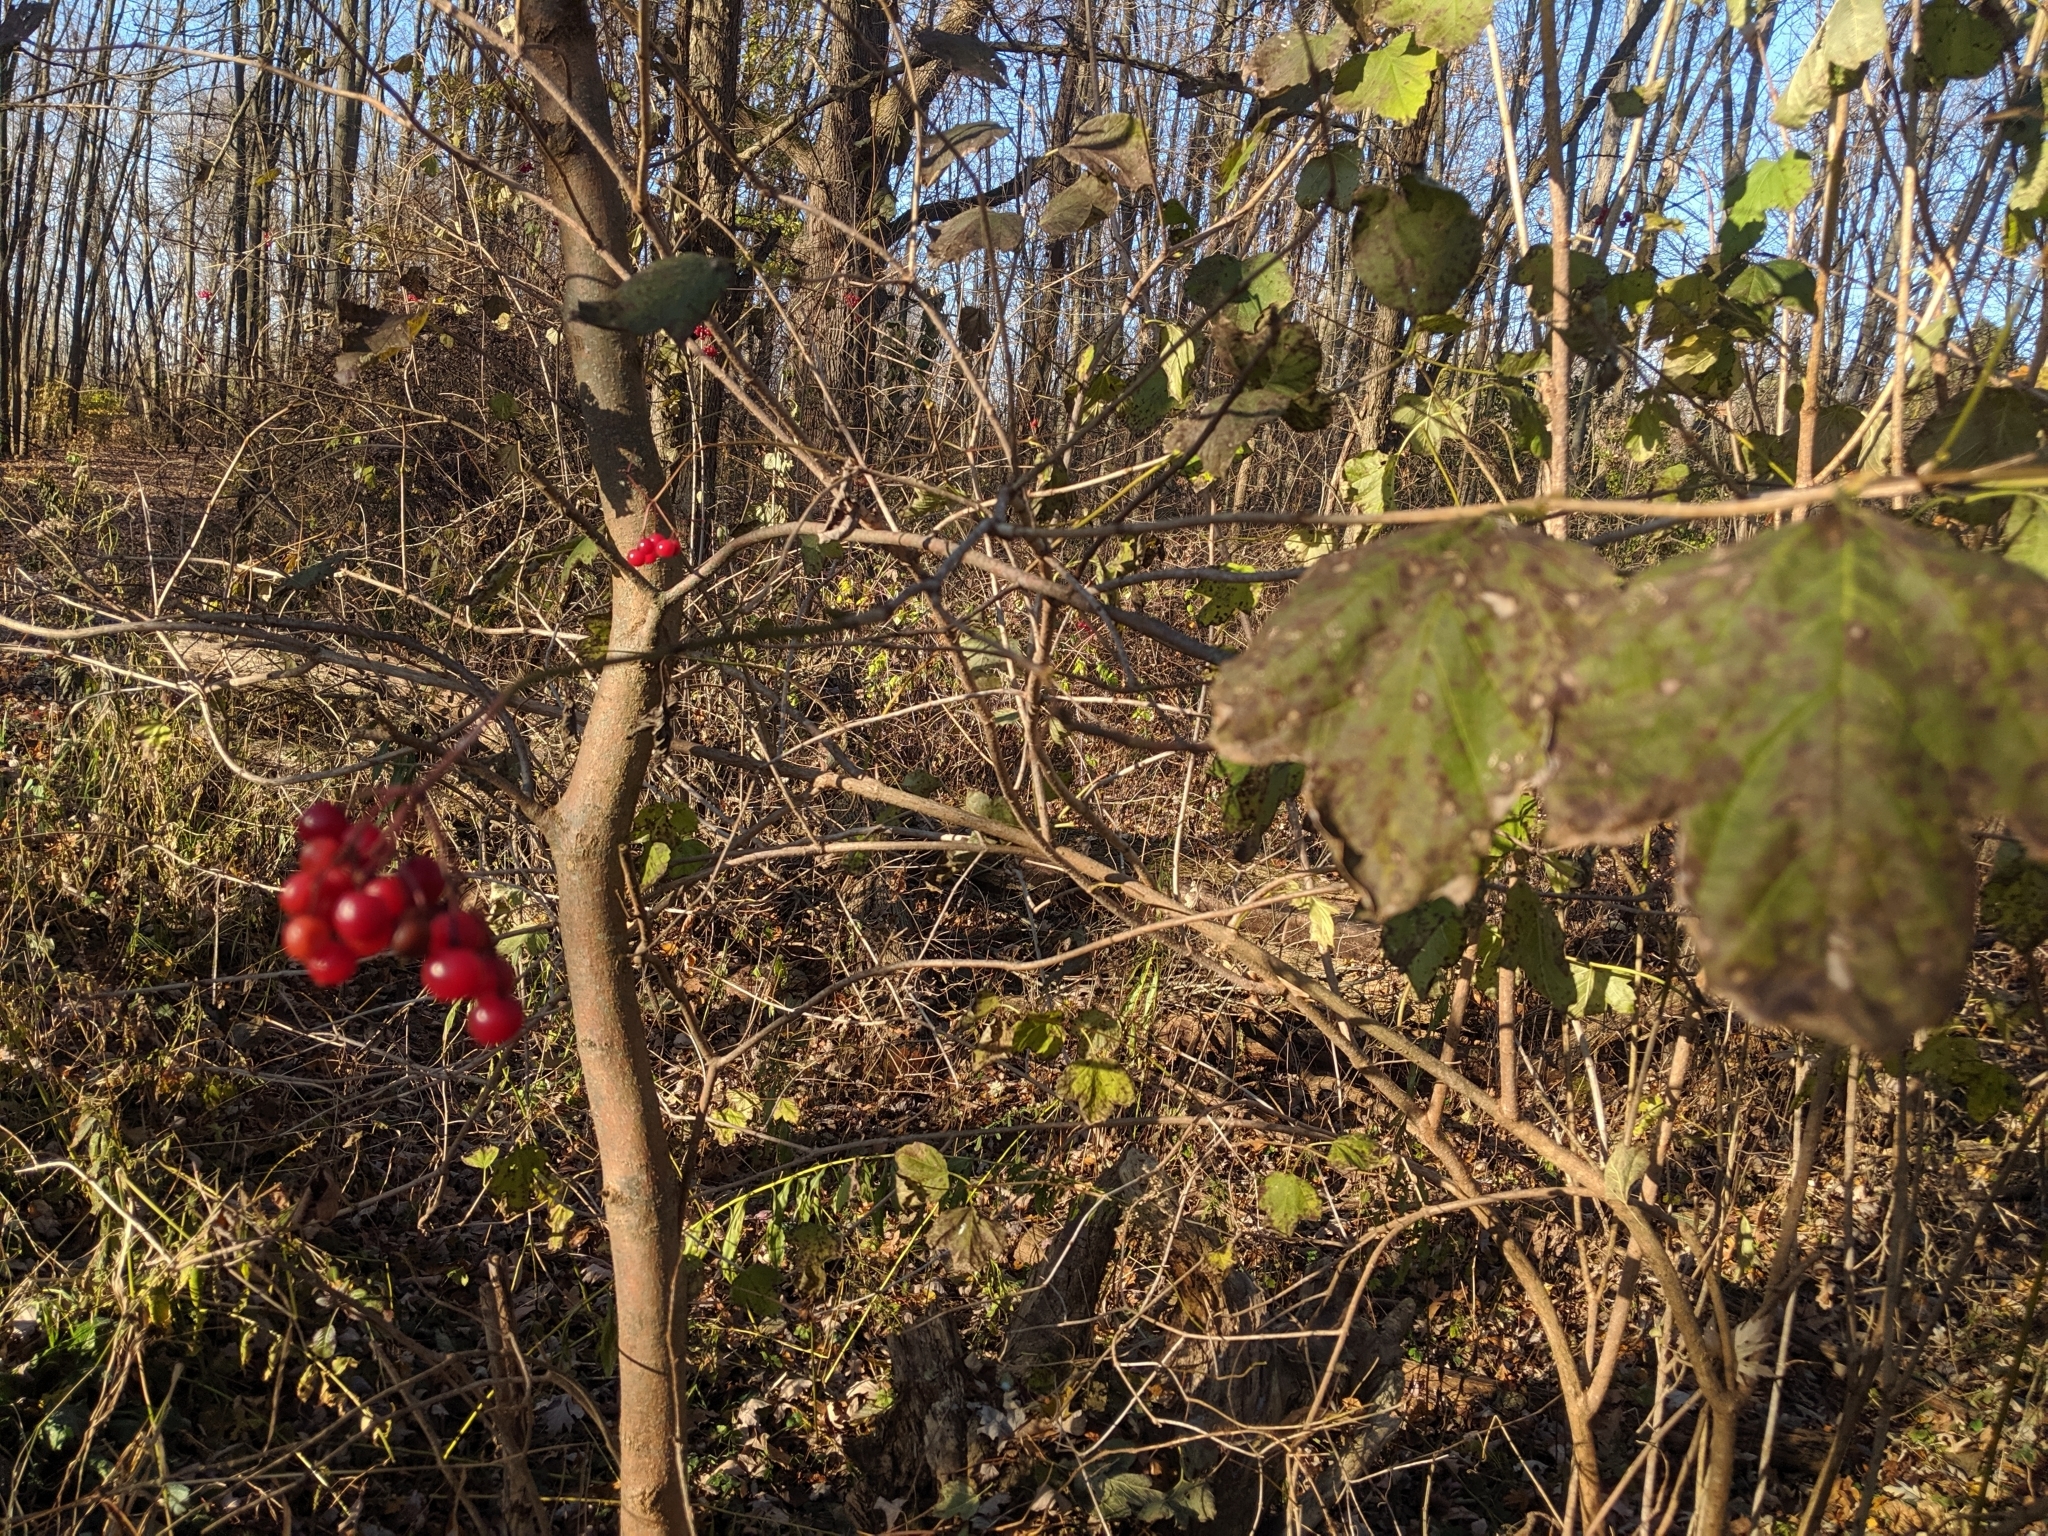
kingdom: Plantae
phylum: Tracheophyta
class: Magnoliopsida
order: Dipsacales
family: Viburnaceae
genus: Viburnum
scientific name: Viburnum opulus
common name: Guelder-rose
